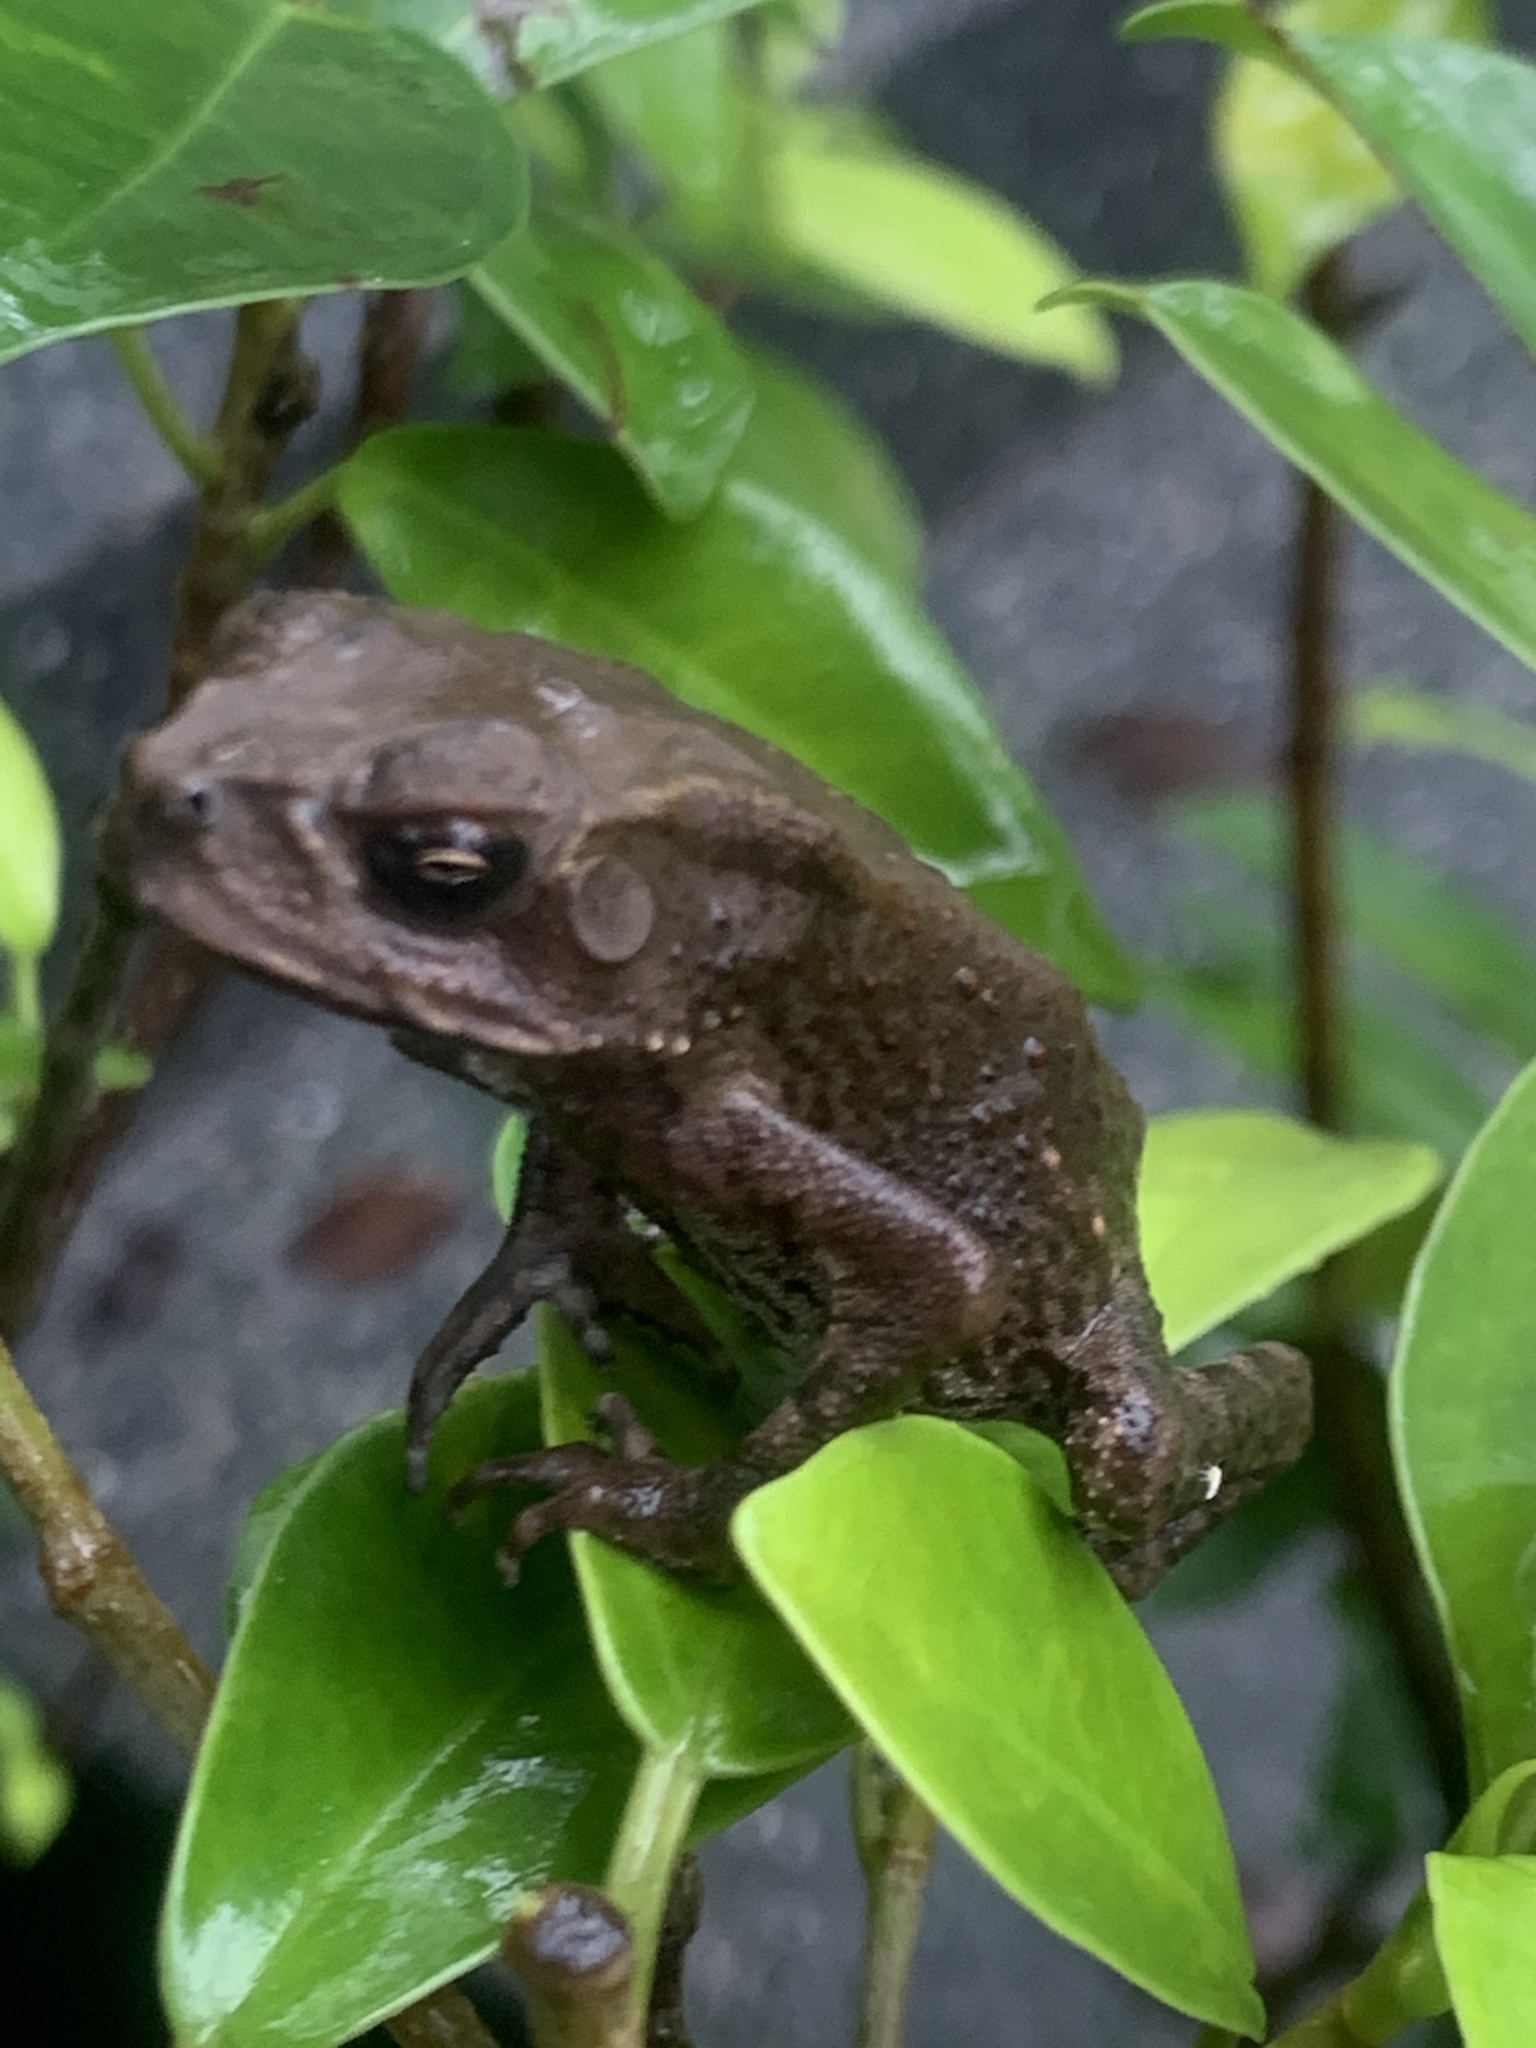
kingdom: Animalia
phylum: Chordata
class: Amphibia
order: Anura
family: Bufonidae
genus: Duttaphrynus
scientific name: Duttaphrynus melanostictus
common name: Common sunda toad
